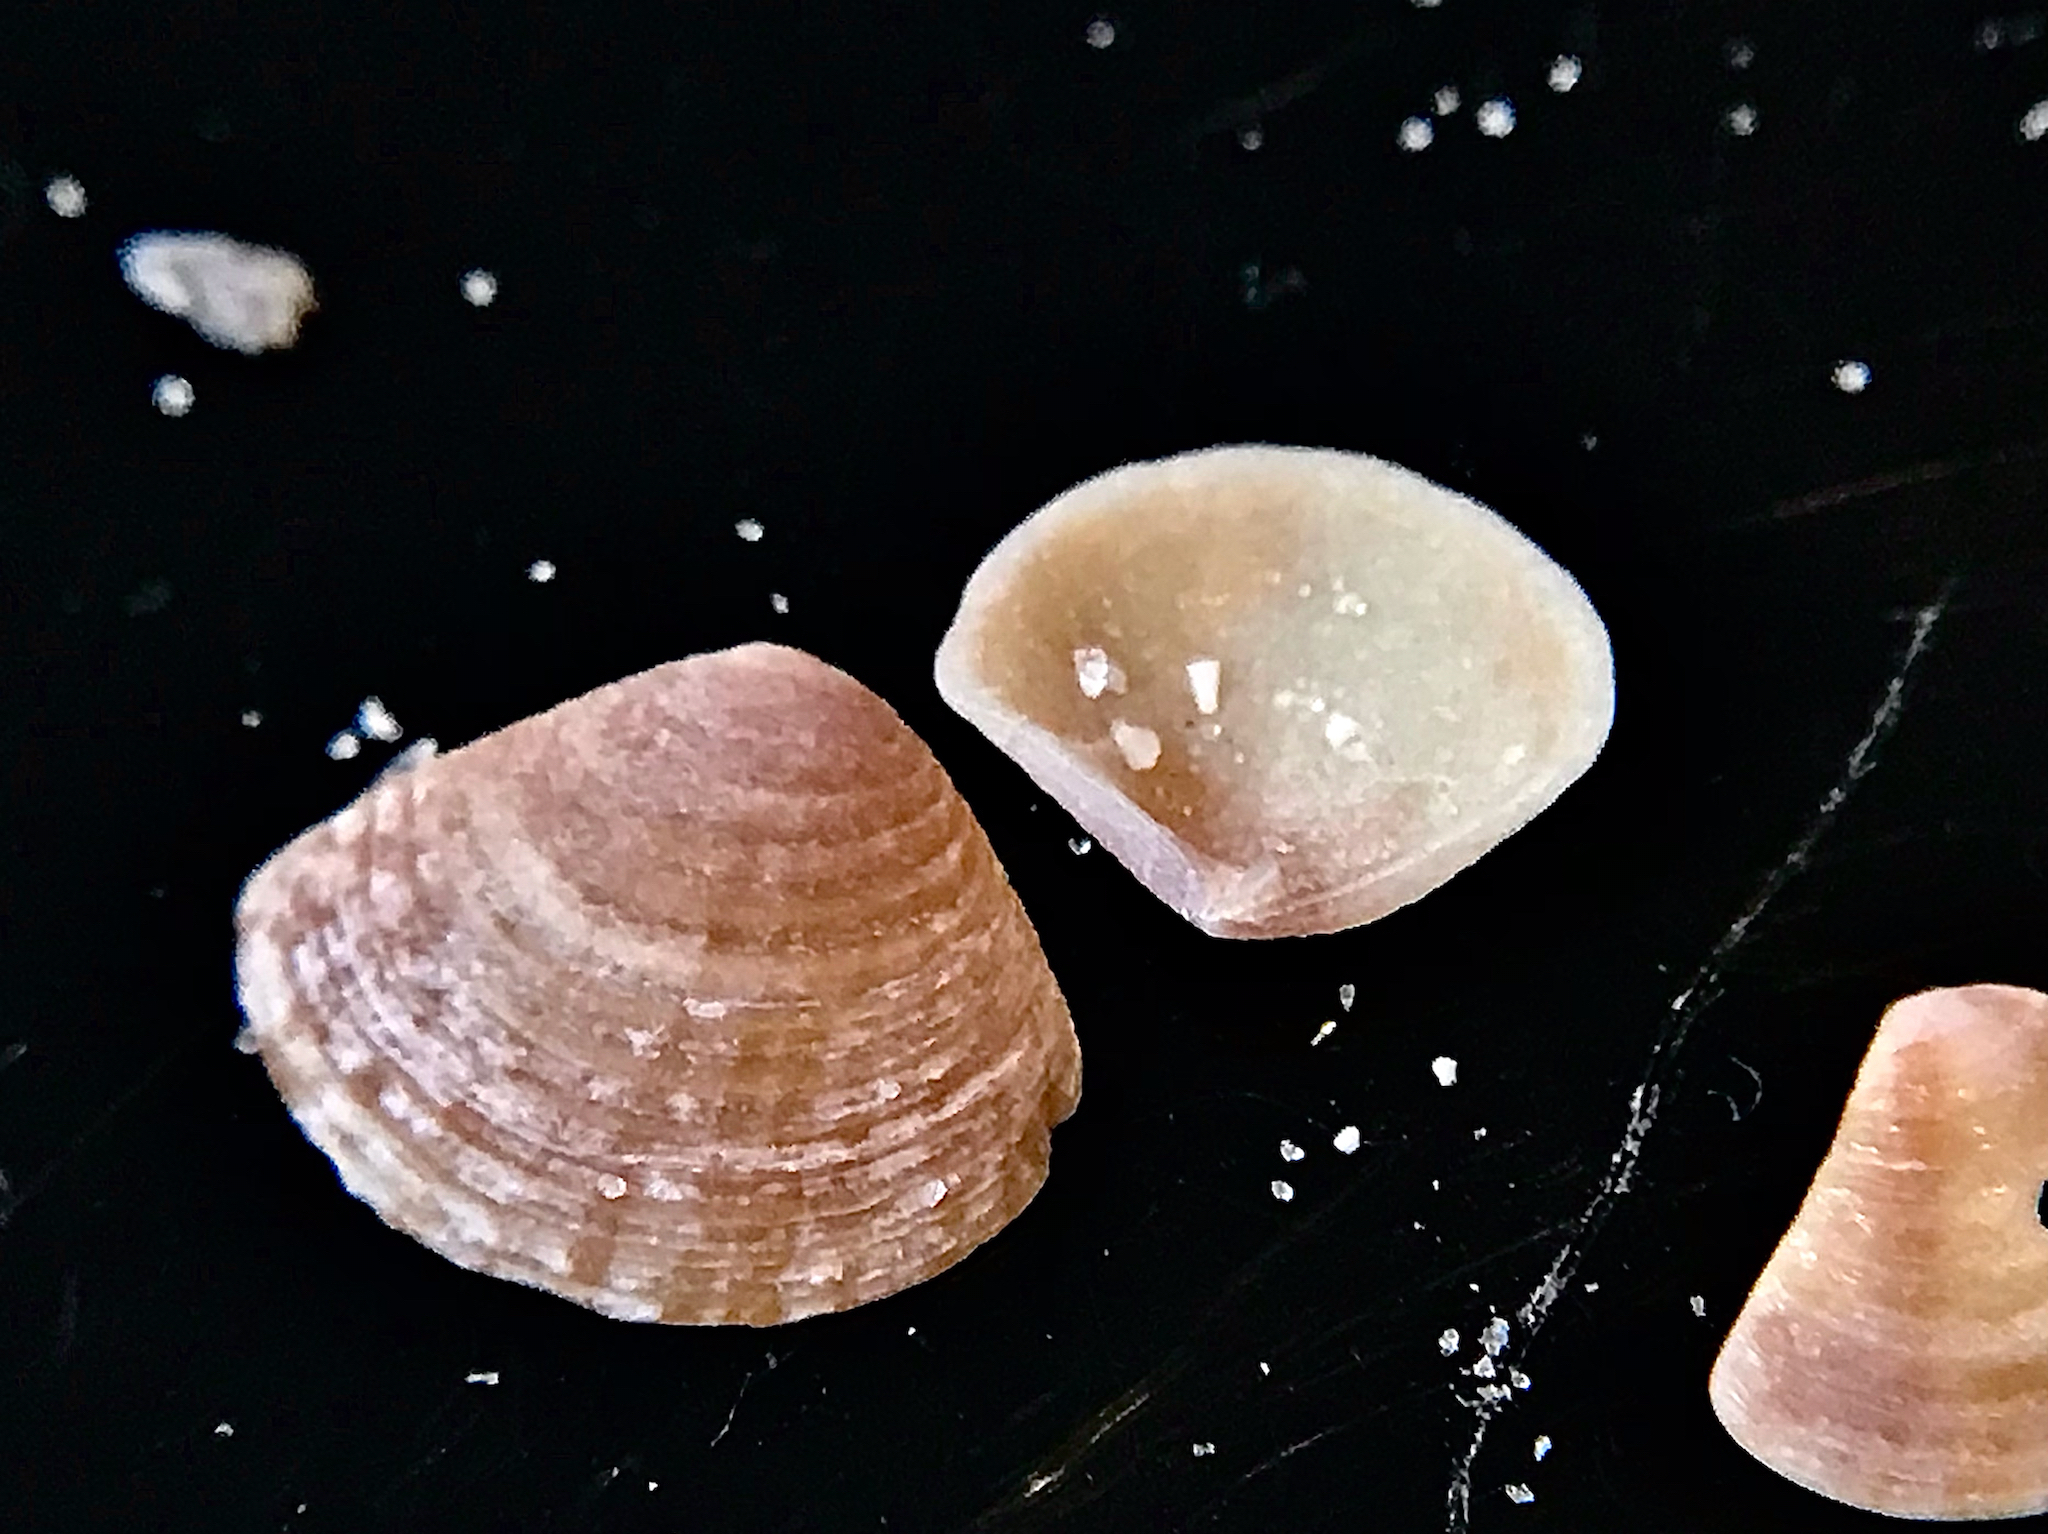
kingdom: Animalia
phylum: Mollusca
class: Bivalvia
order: Carditida
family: Crassatellidae
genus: Crassinella
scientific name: Crassinella lunulata
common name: Lunate crassinella
